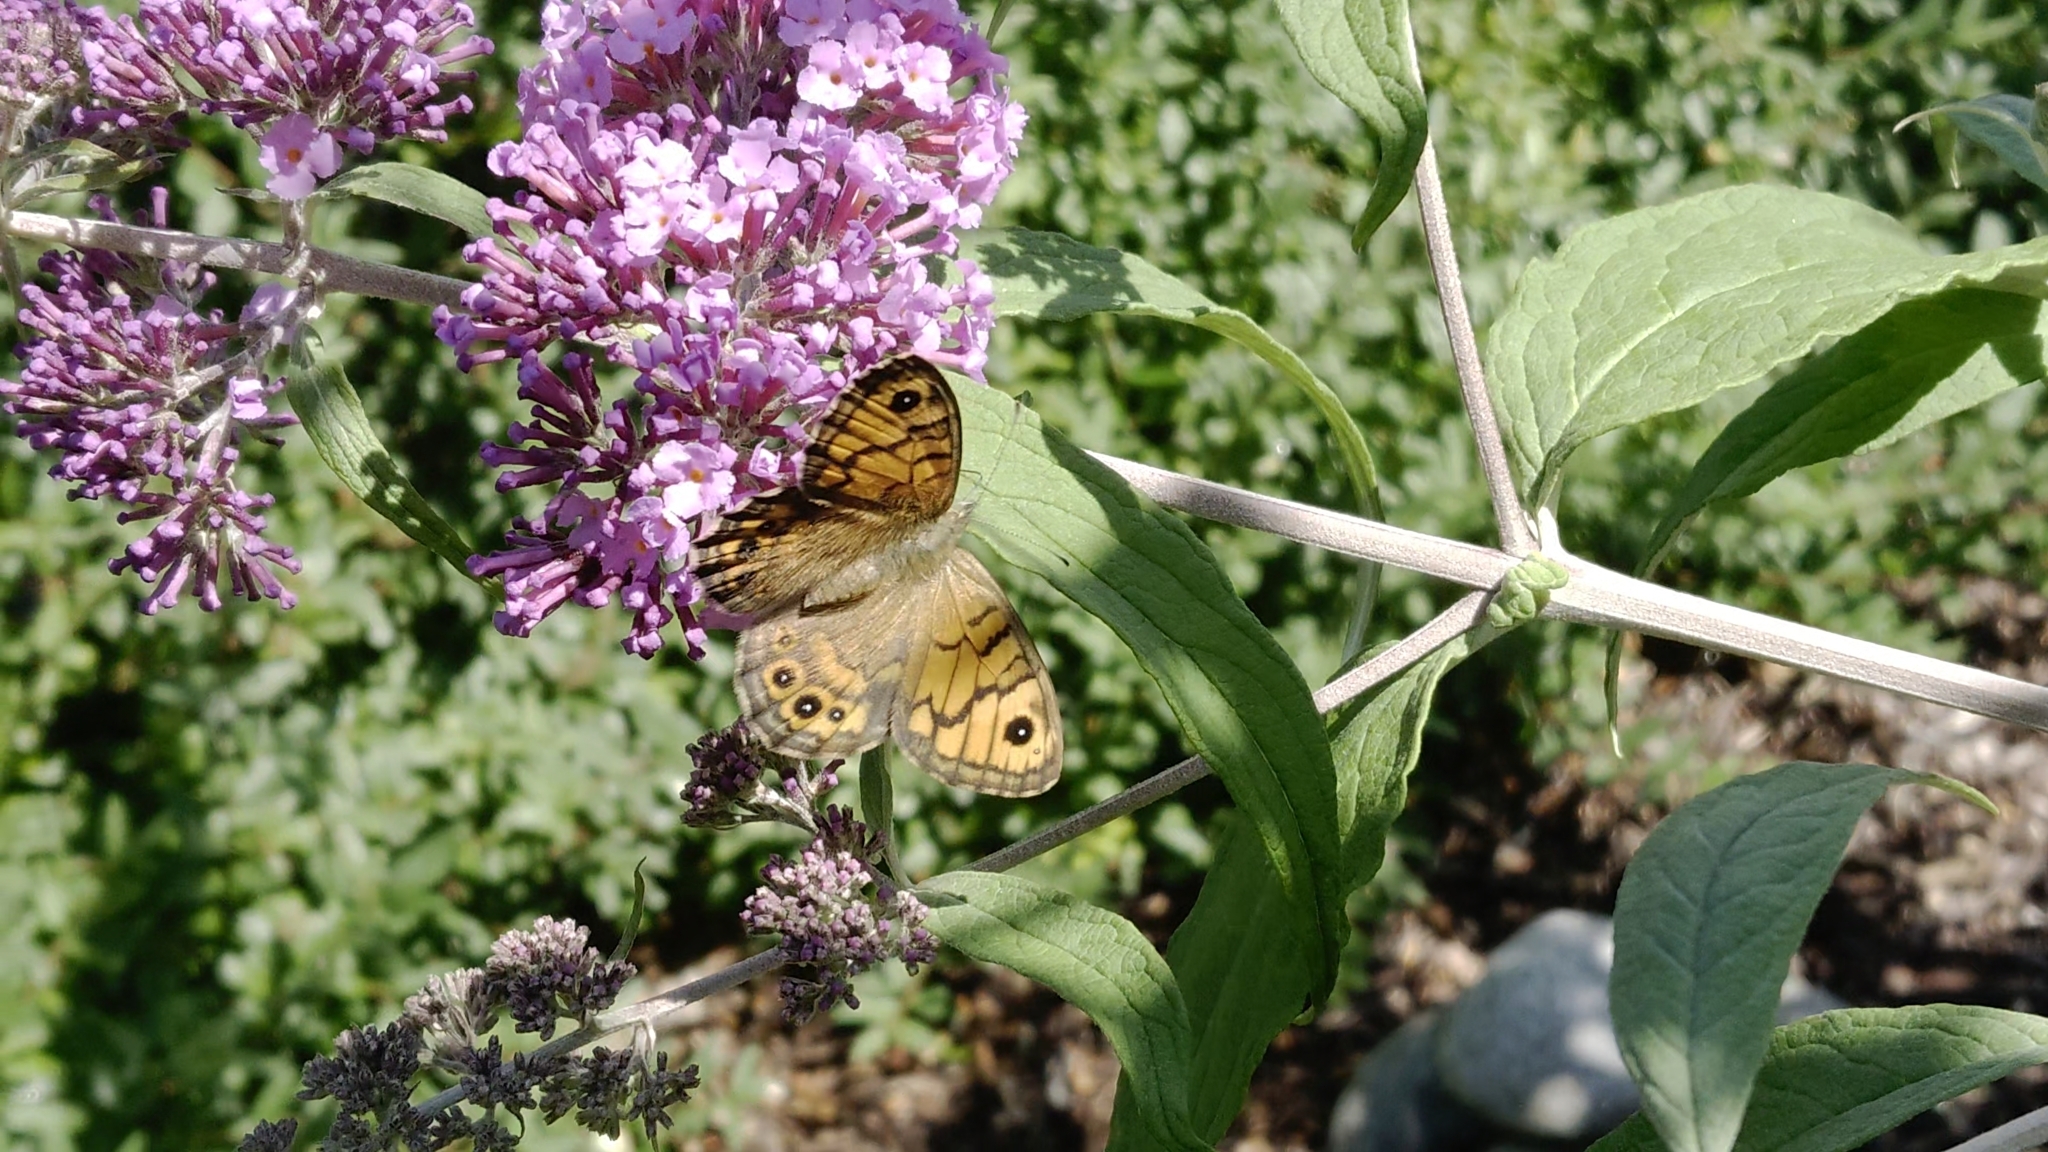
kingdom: Animalia
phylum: Arthropoda
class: Insecta
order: Lepidoptera
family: Nymphalidae
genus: Pararge
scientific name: Pararge Lasiommata megera
